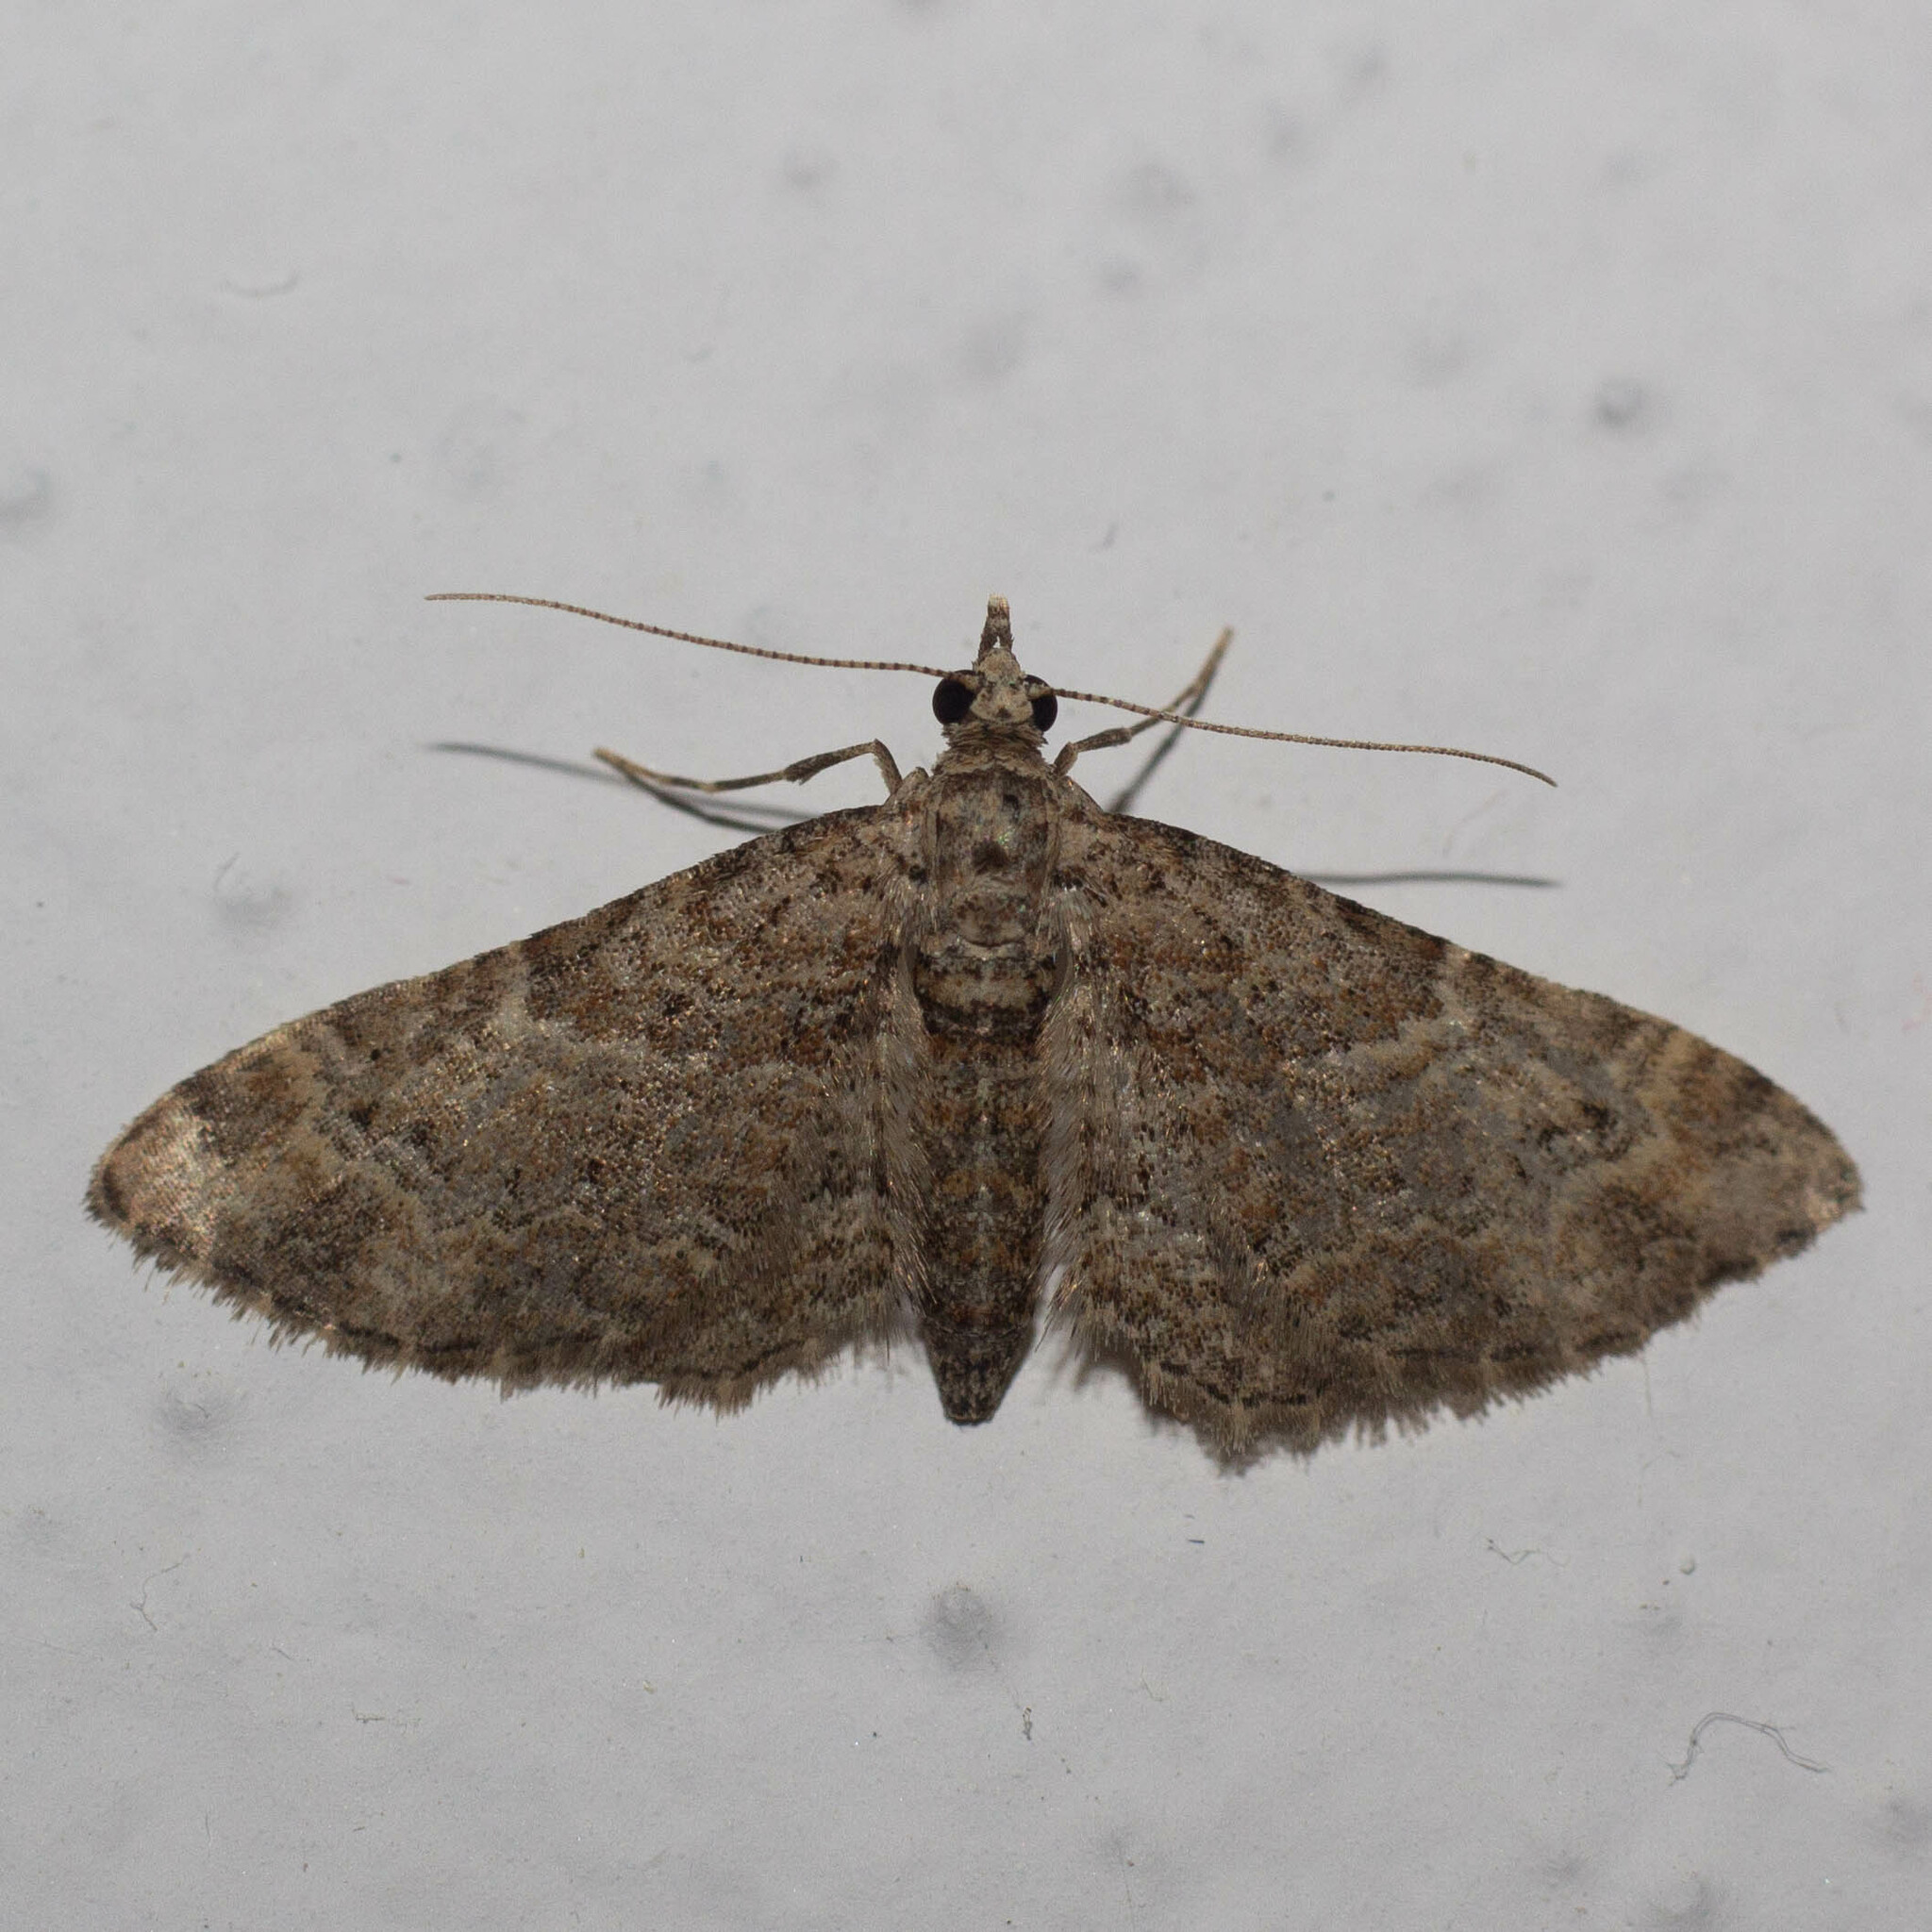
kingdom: Animalia
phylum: Arthropoda
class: Insecta
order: Lepidoptera
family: Geometridae
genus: Gymnoscelis
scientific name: Gymnoscelis rufifasciata
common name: Double-striped pug
